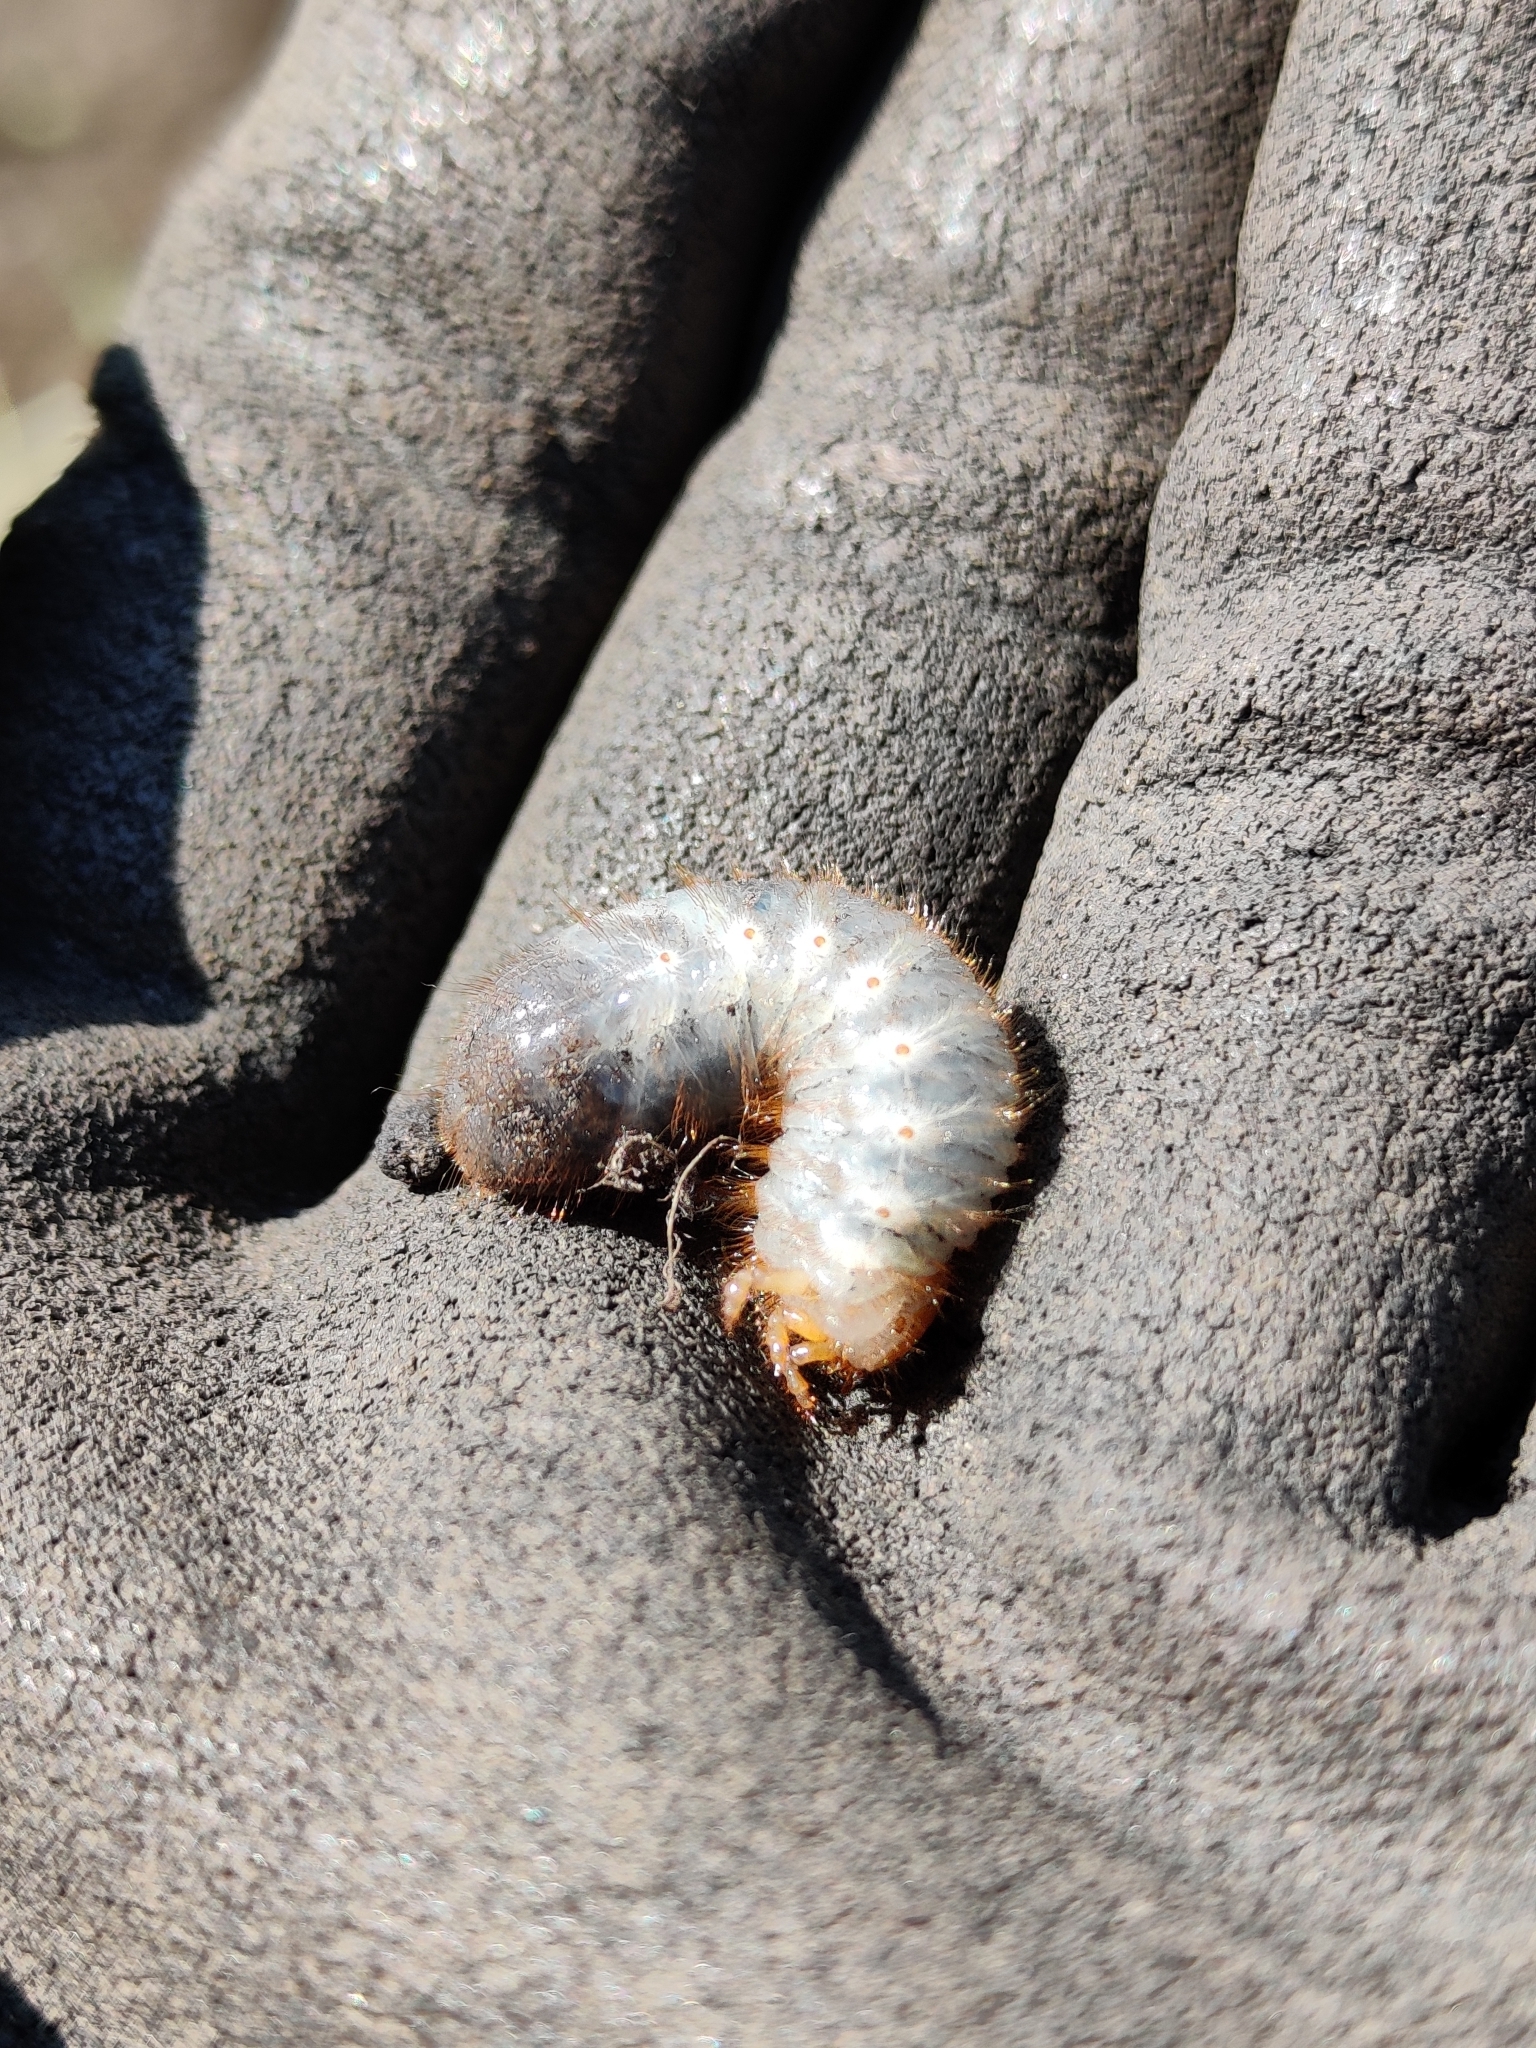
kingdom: Animalia
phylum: Arthropoda
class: Insecta
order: Coleoptera
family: Scarabaeidae
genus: Cetonia
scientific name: Cetonia aurata
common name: Rose chafer
